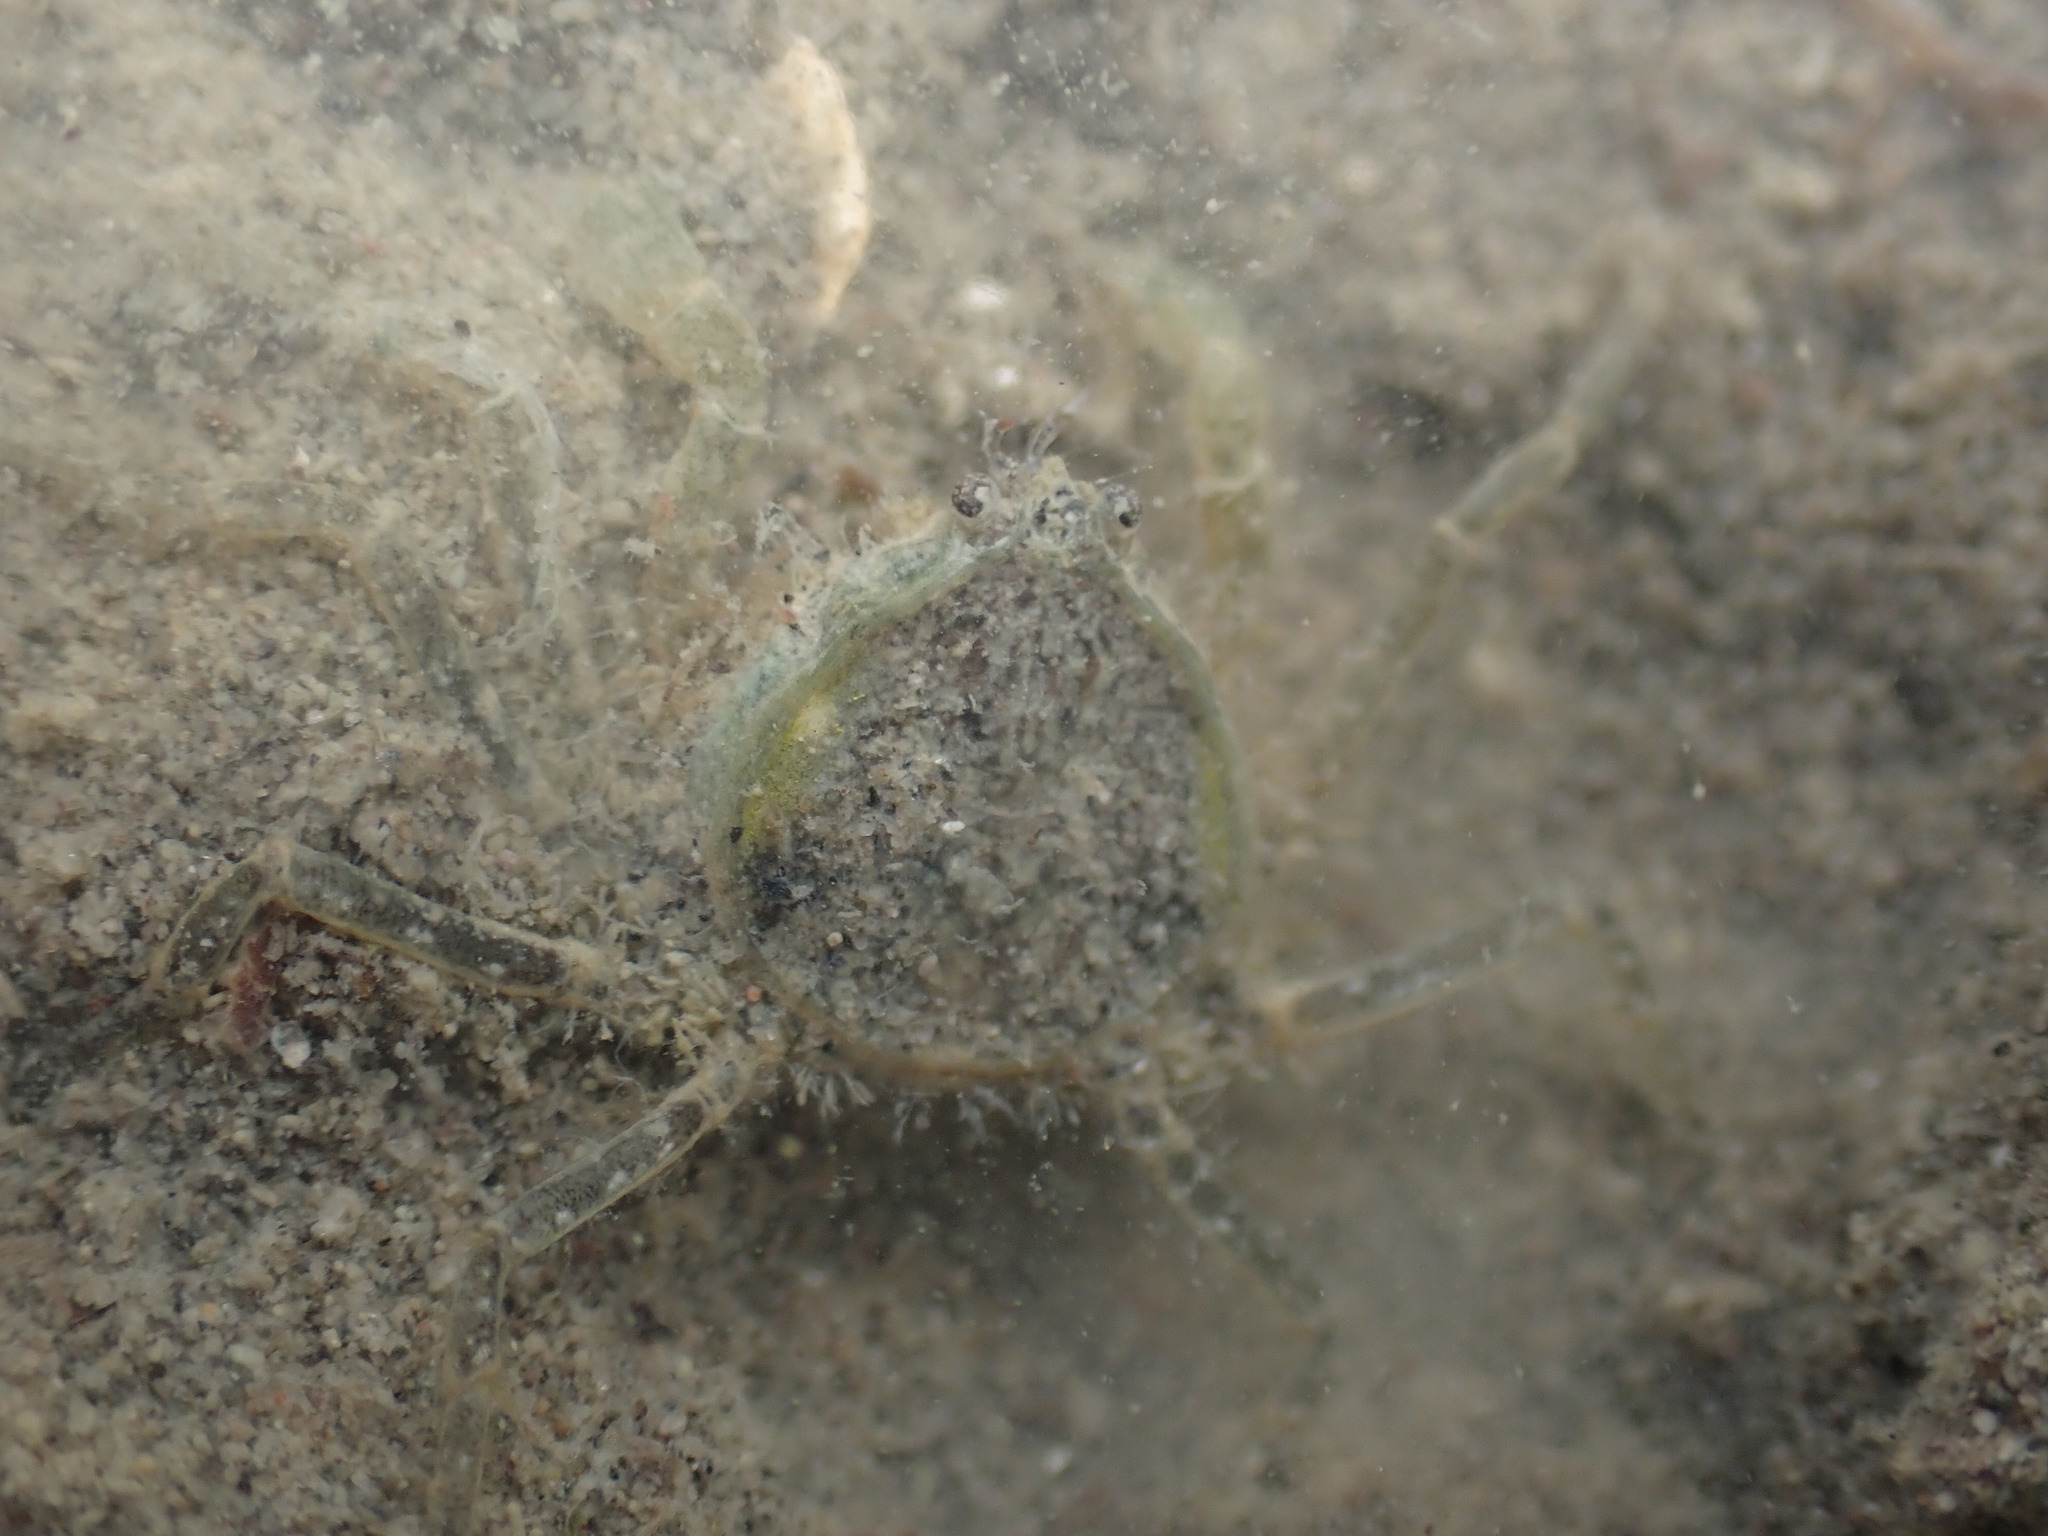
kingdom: Animalia
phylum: Arthropoda
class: Malacostraca
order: Decapoda
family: Hymenosomatidae
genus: Halicarcinus
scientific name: Halicarcinus whitei
